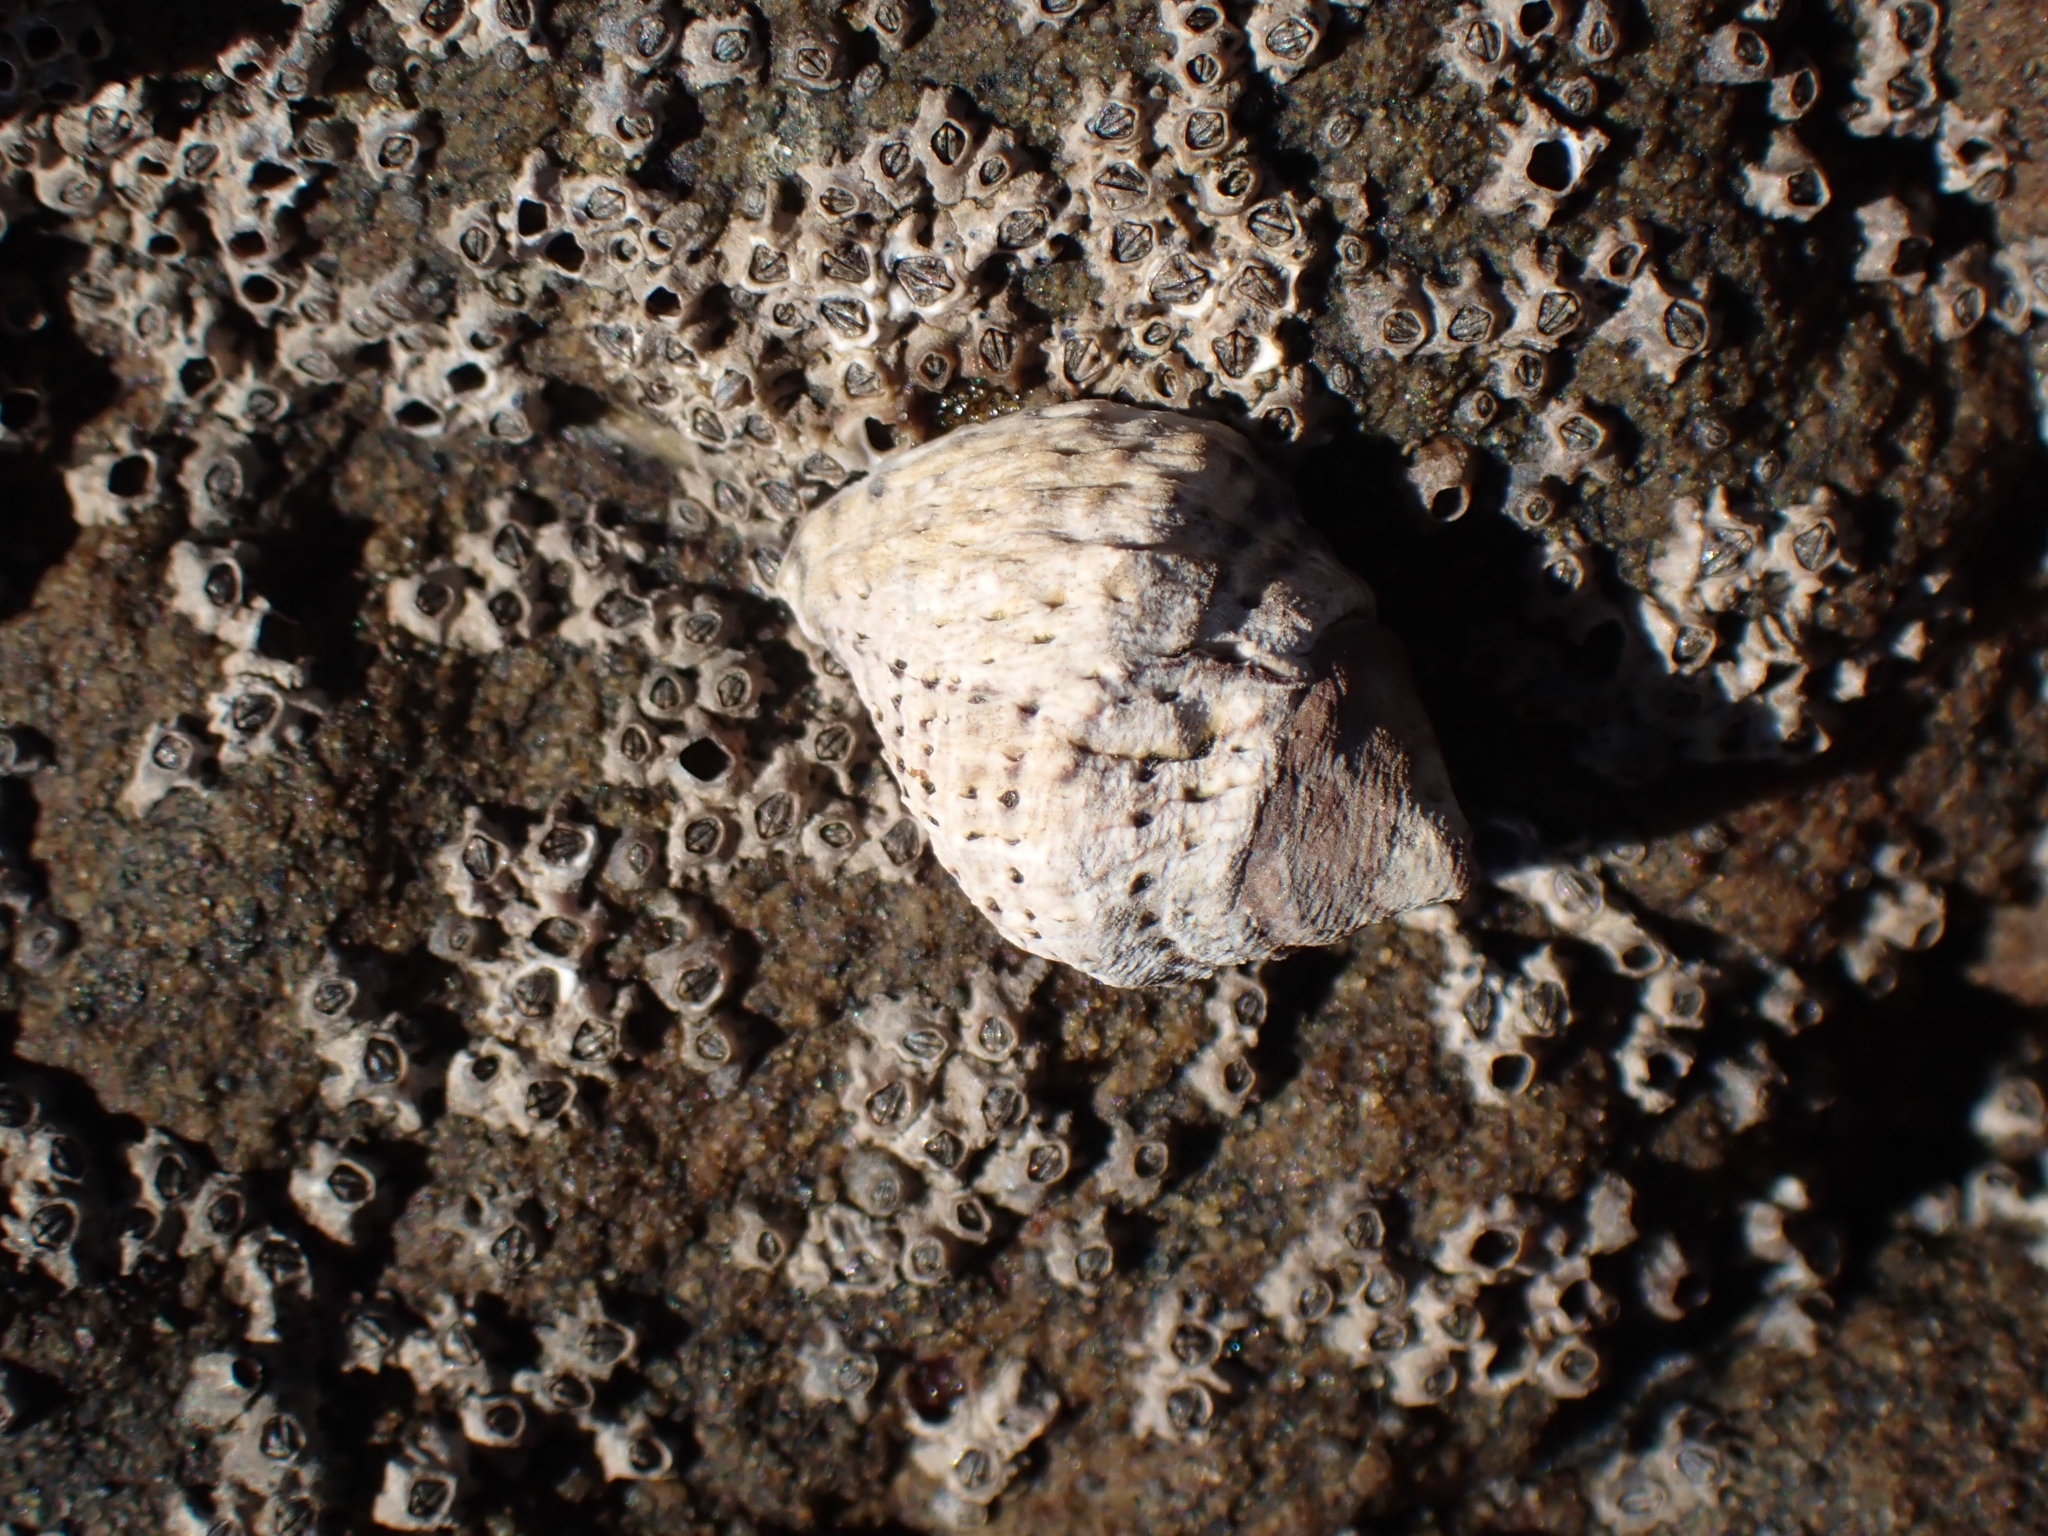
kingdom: Animalia
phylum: Mollusca
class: Gastropoda
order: Neogastropoda
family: Muricidae
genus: Haustrum
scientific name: Haustrum
